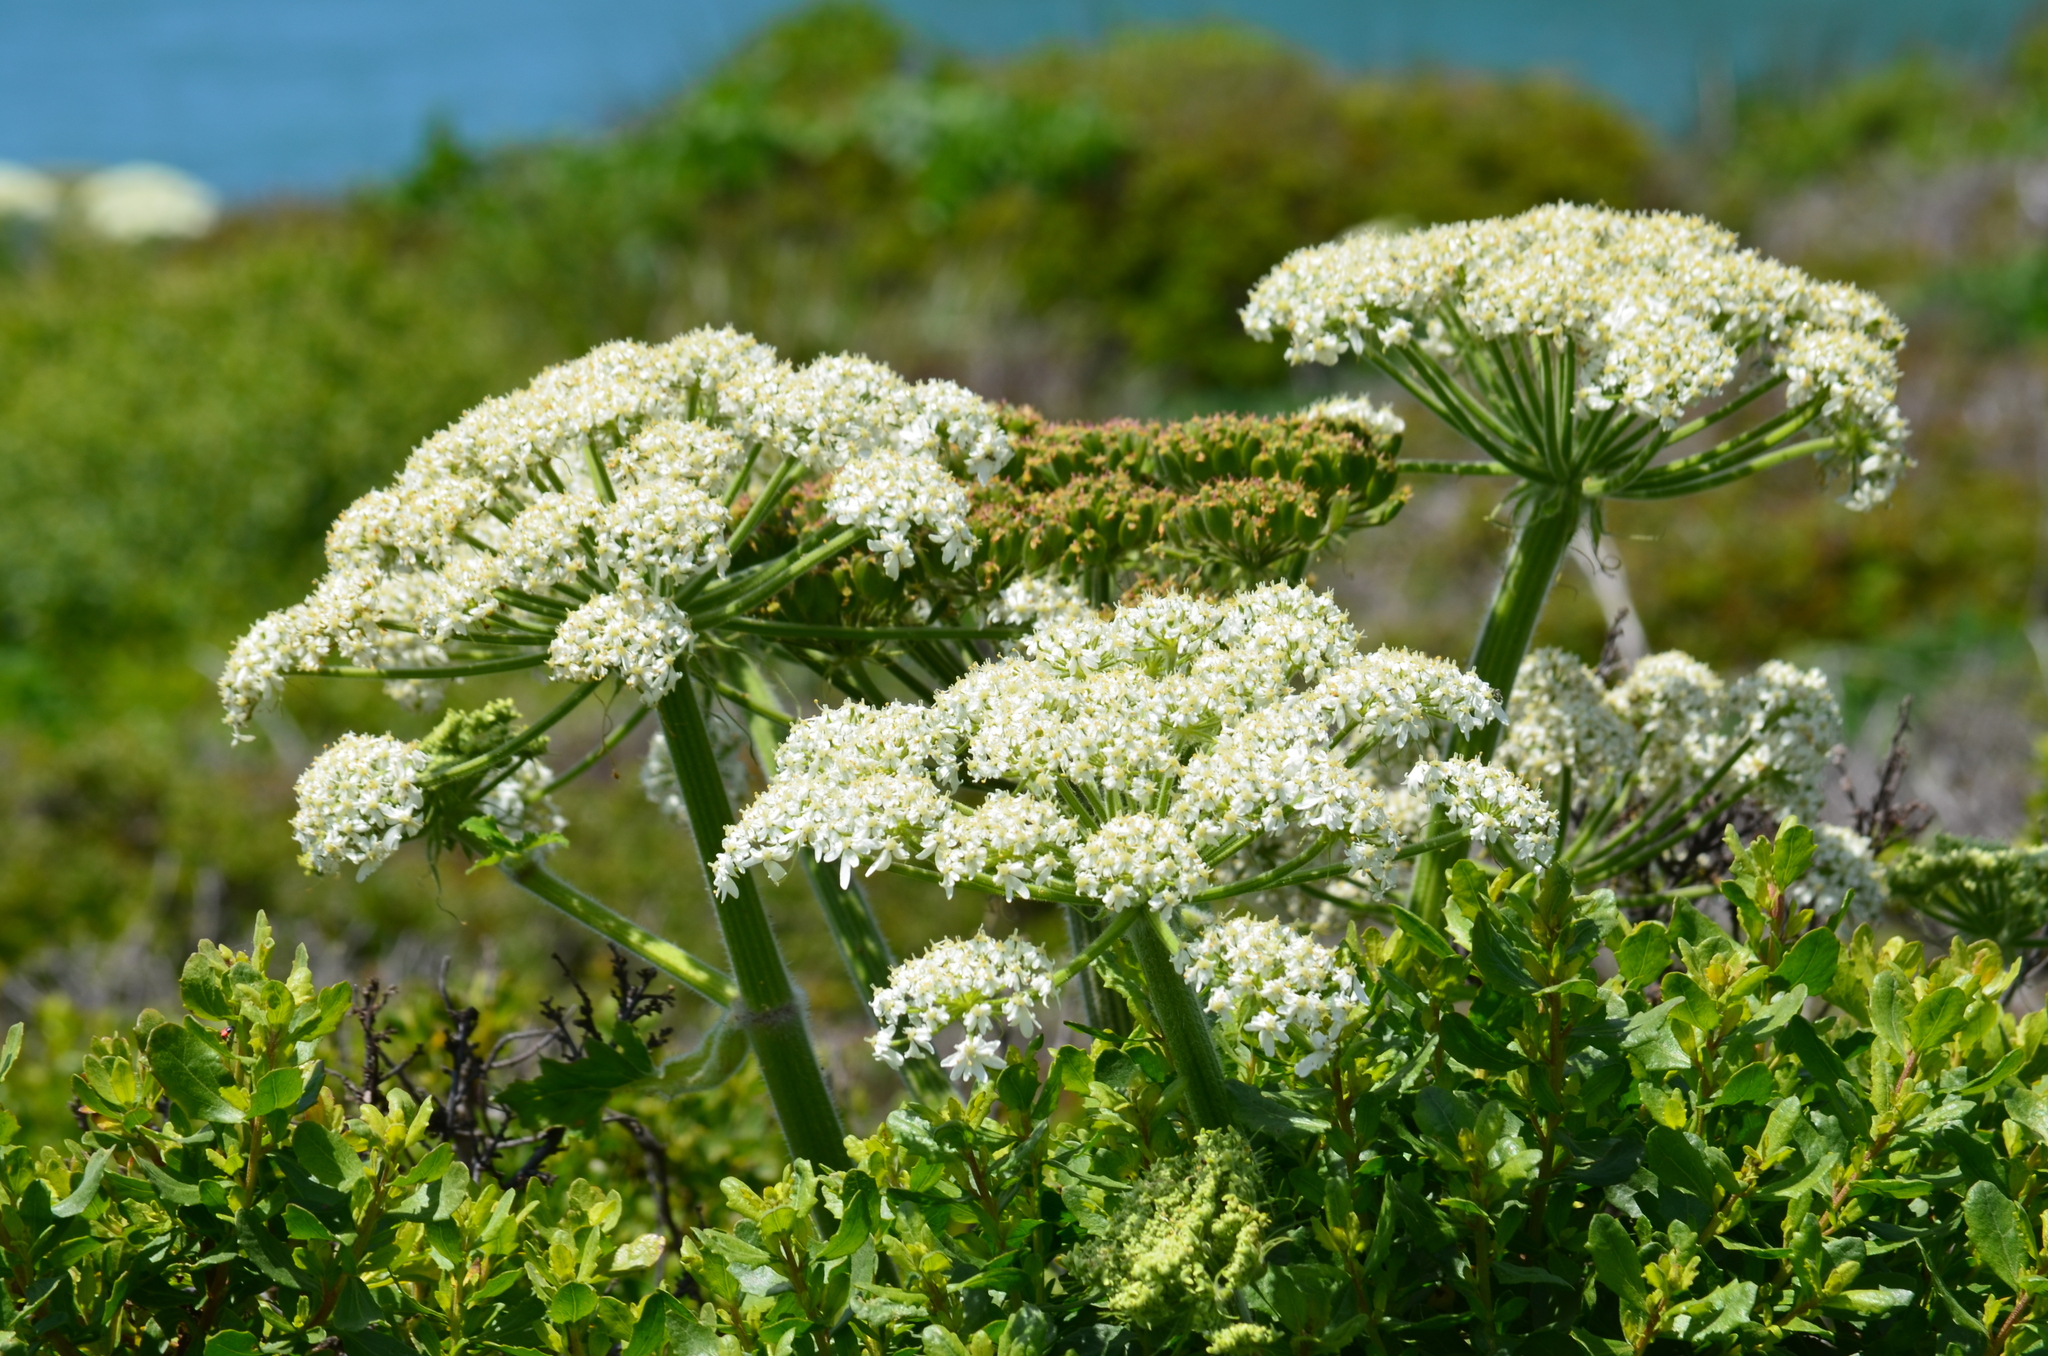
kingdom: Plantae
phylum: Tracheophyta
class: Magnoliopsida
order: Apiales
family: Apiaceae
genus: Heracleum
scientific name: Heracleum maximum
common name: American cow parsnip
